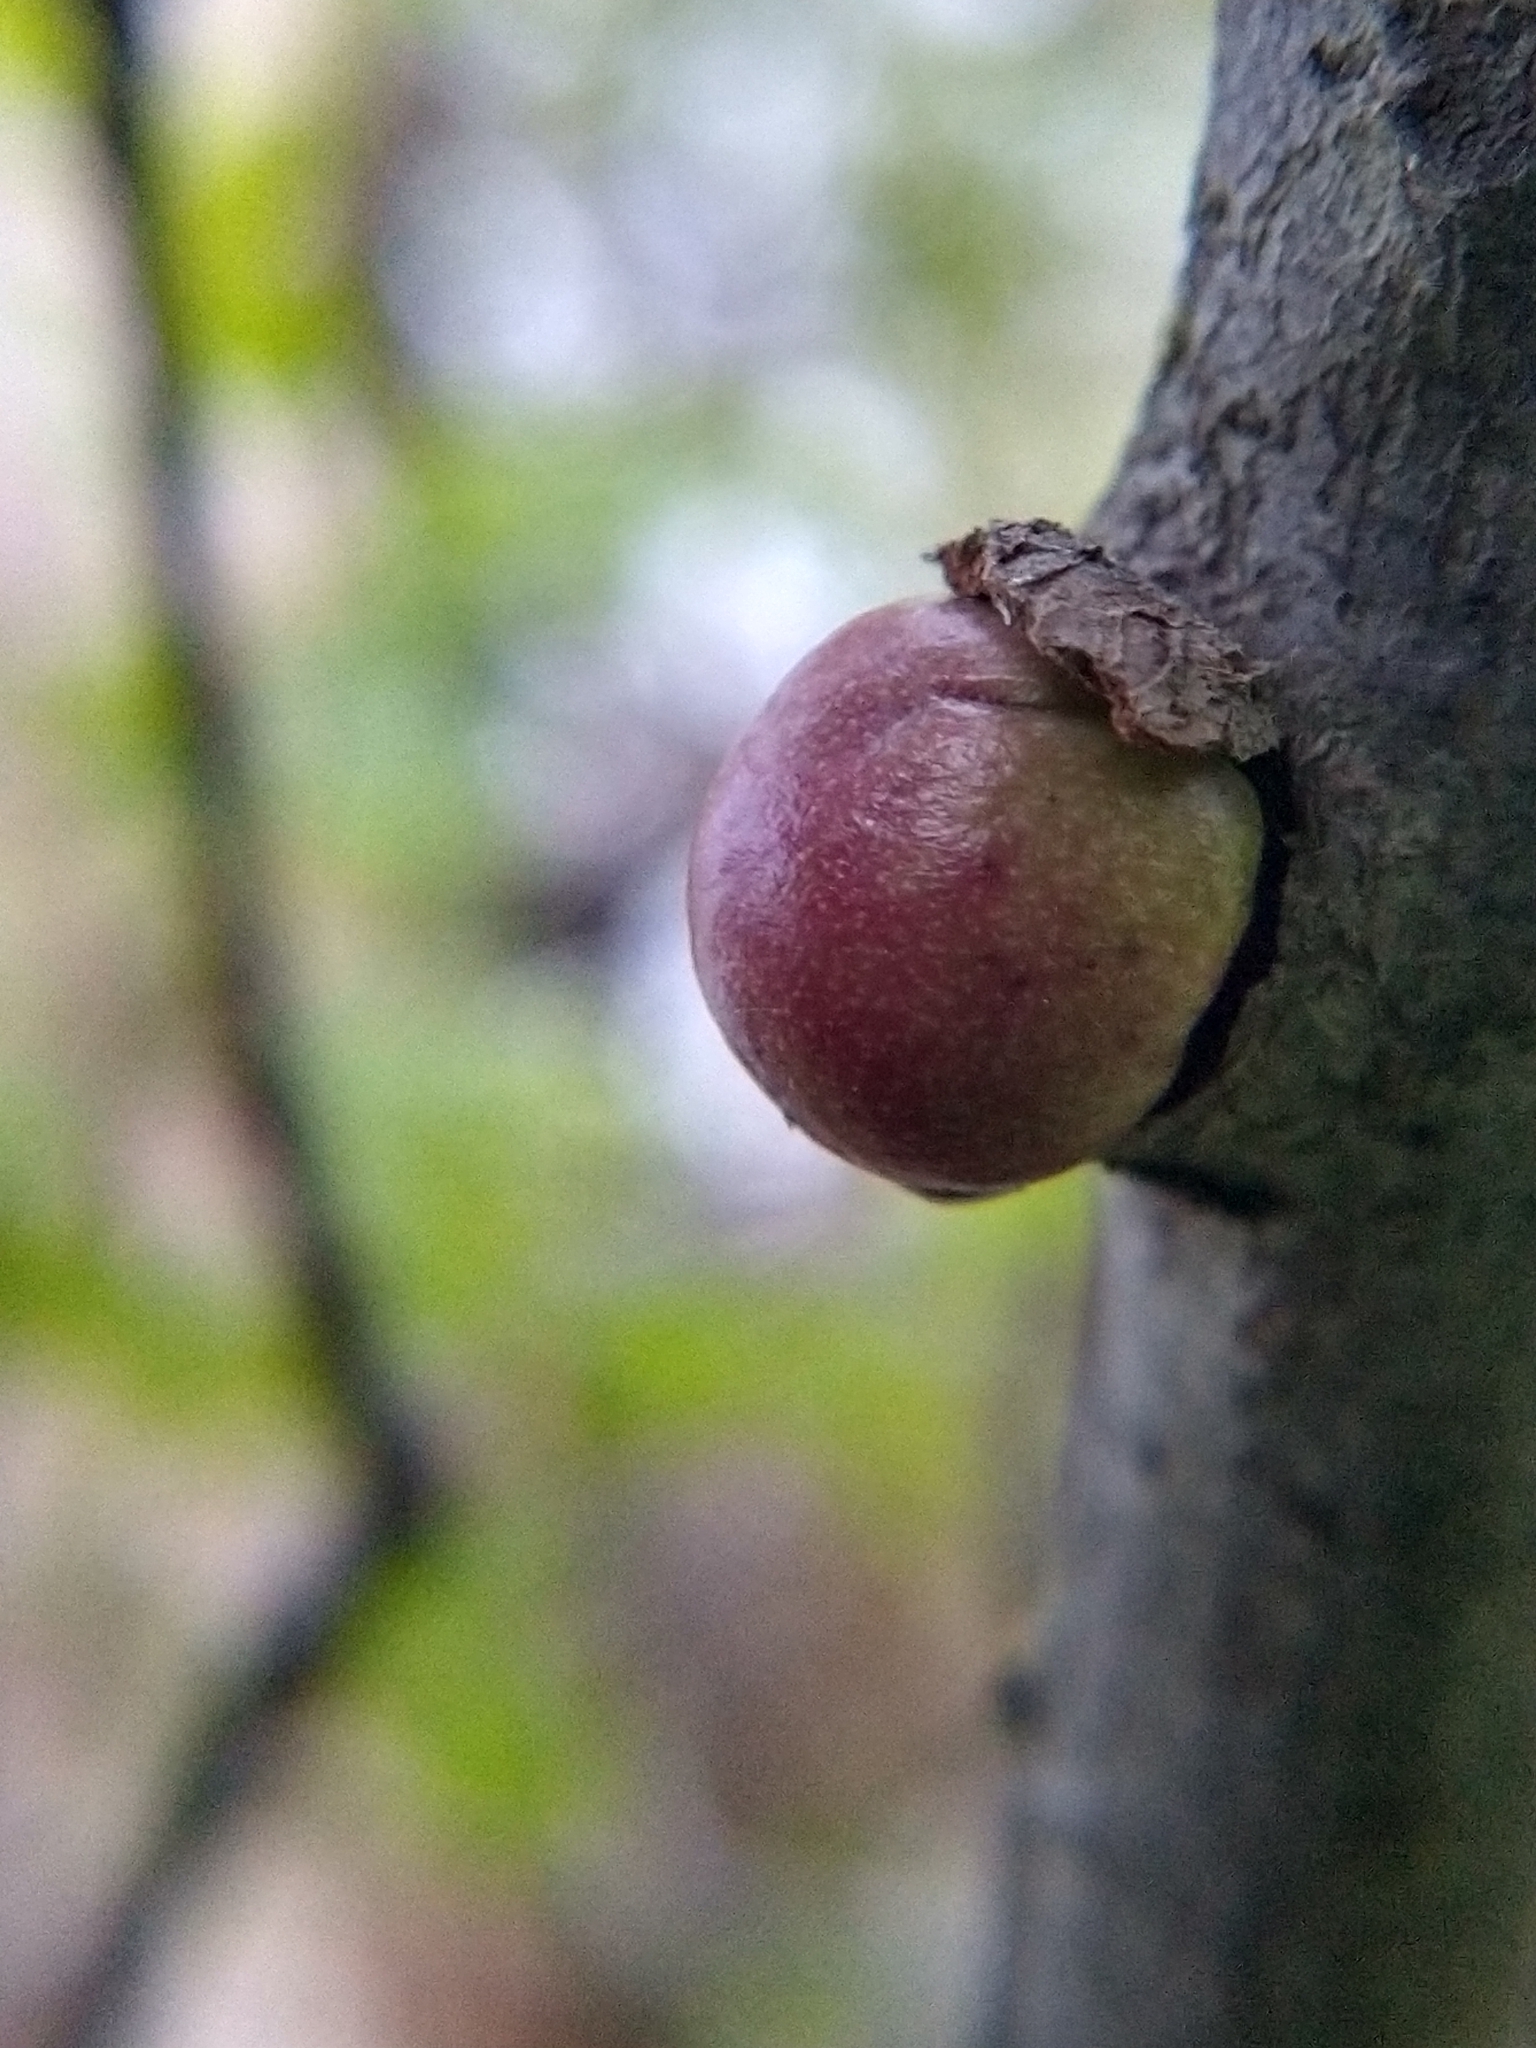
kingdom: Animalia
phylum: Arthropoda
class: Insecta
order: Hymenoptera
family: Cynipidae
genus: Andricus
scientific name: Andricus quercuscalifornicus
